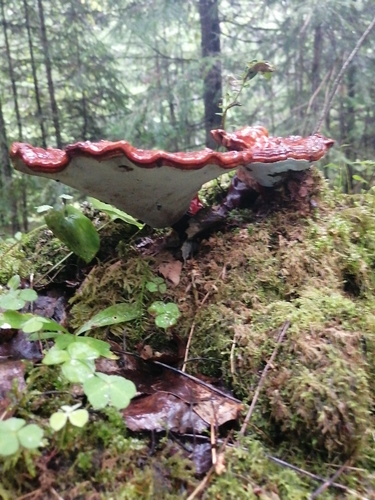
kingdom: Fungi
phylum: Basidiomycota
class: Agaricomycetes
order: Polyporales
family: Polyporaceae
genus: Ganoderma
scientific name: Ganoderma lucidum
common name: Lacquered bracket
